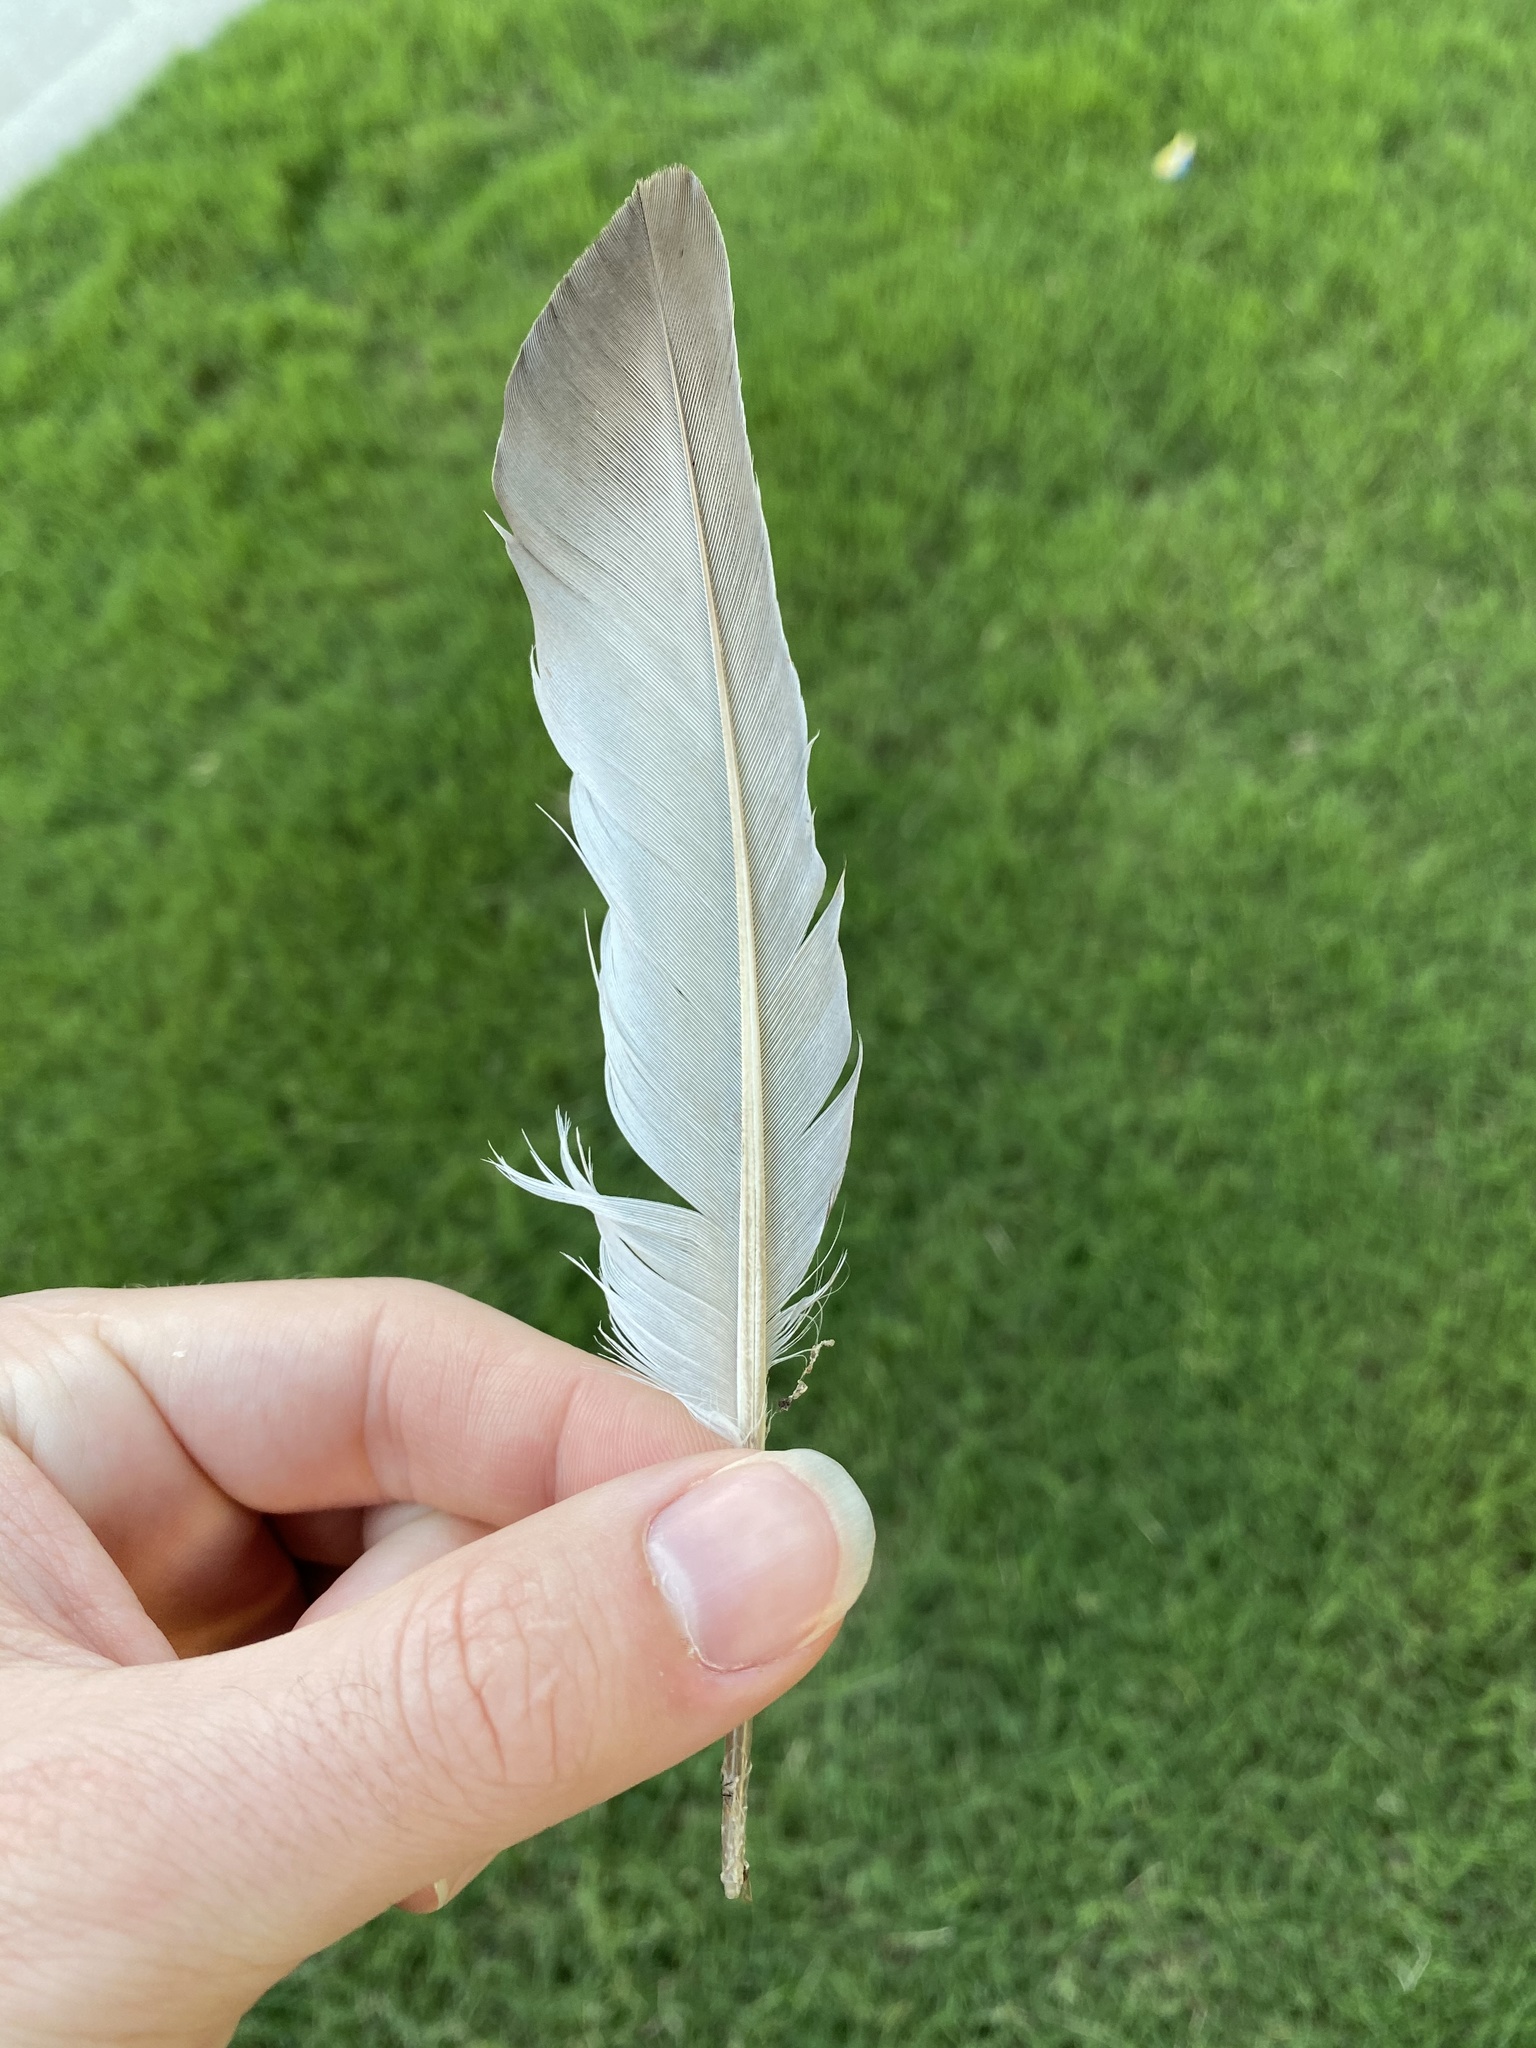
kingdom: Animalia
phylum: Chordata
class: Aves
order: Columbiformes
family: Columbidae
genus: Columba
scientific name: Columba livia
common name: Rock pigeon
